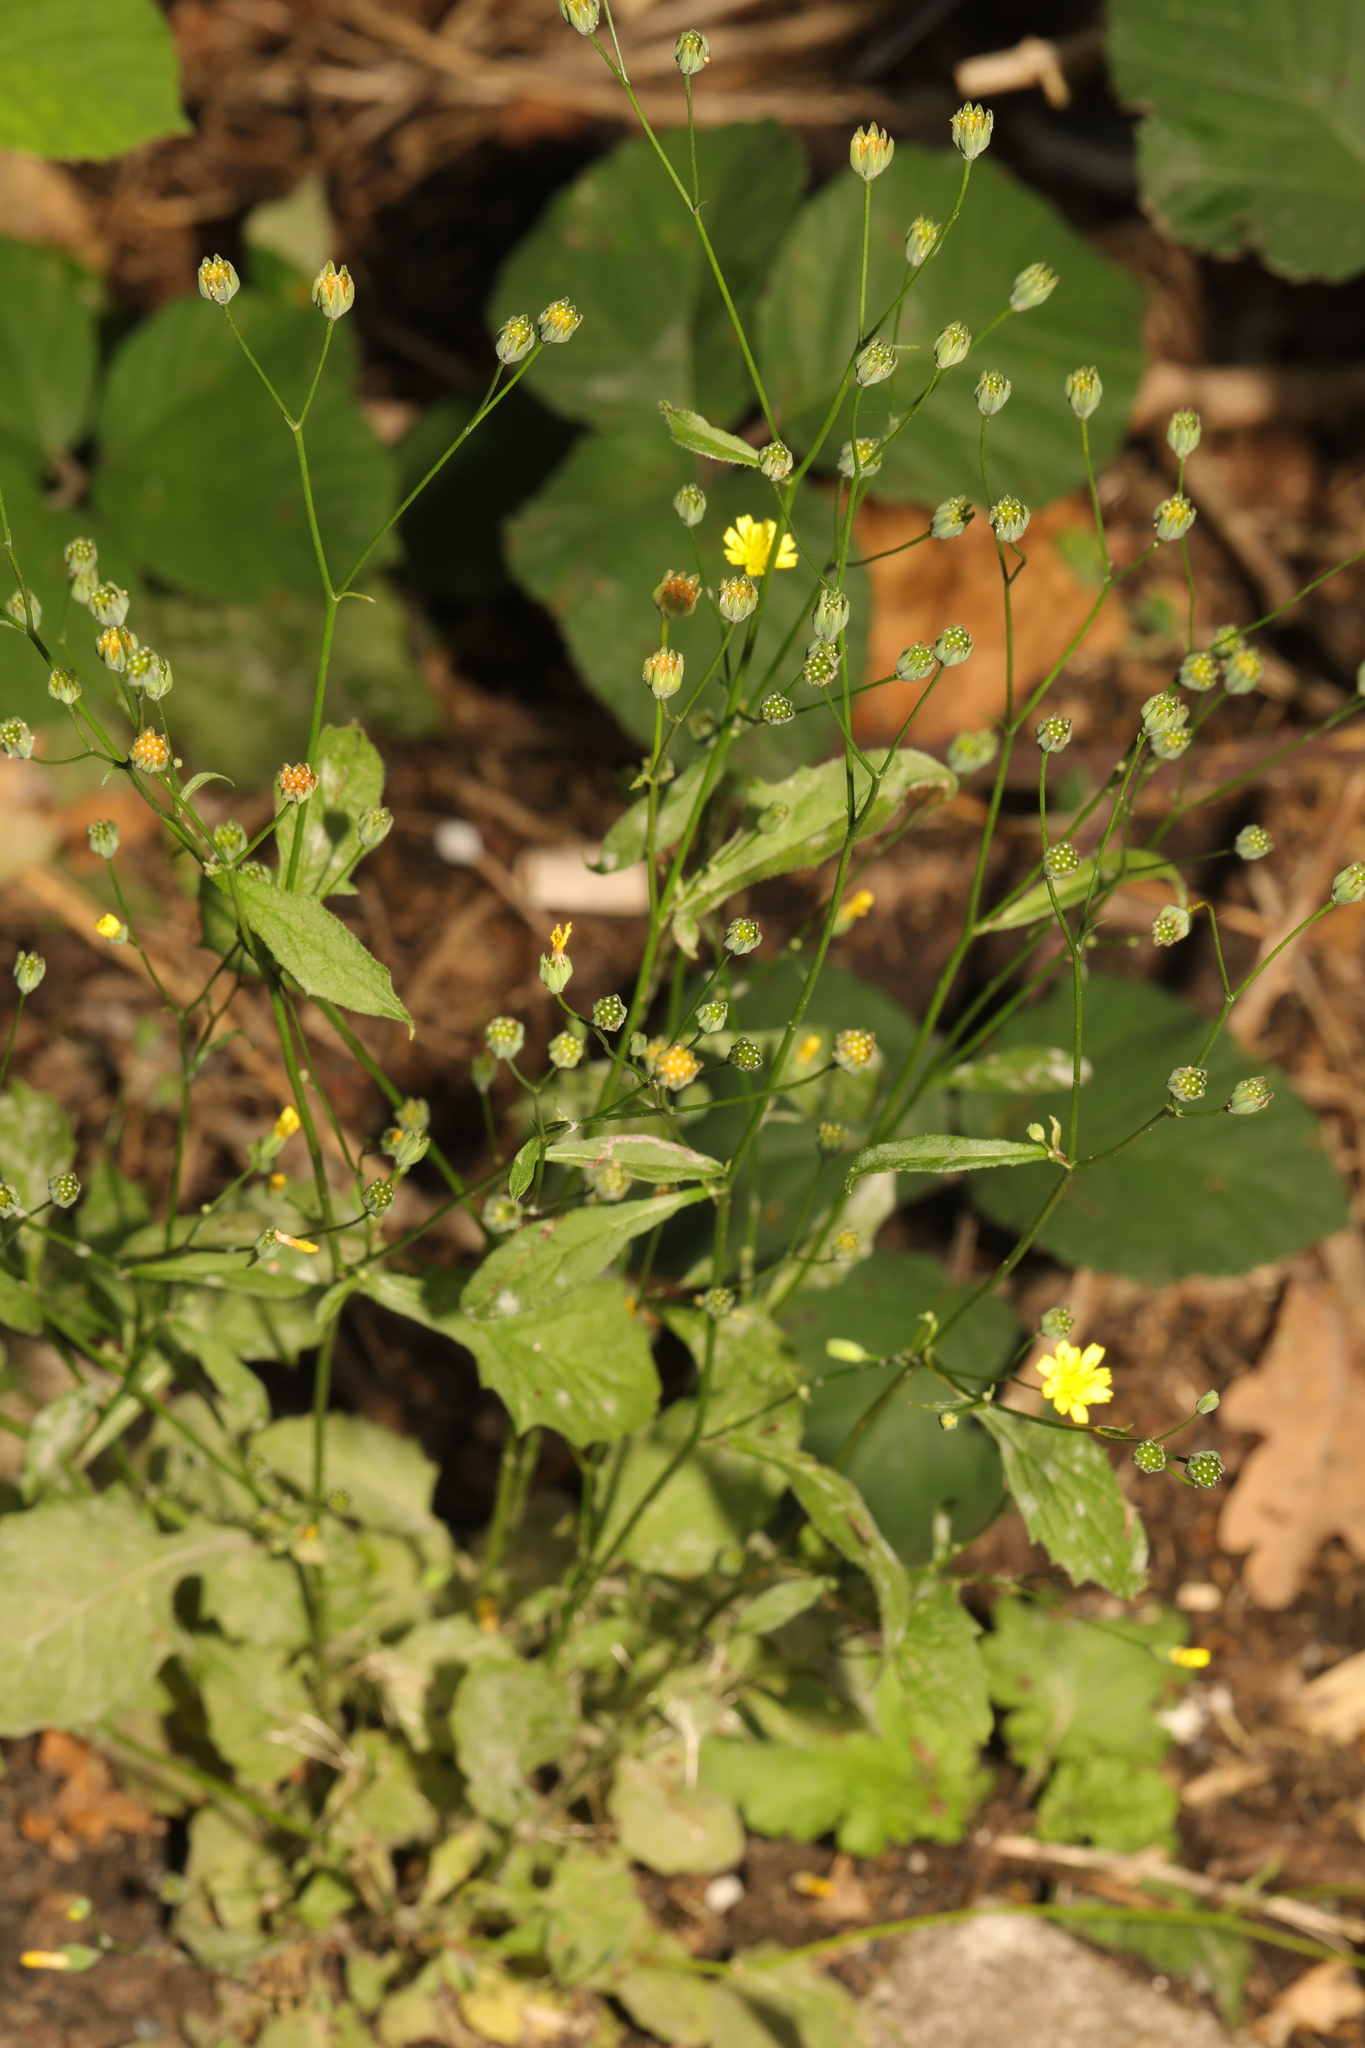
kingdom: Plantae
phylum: Tracheophyta
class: Magnoliopsida
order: Asterales
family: Asteraceae
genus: Lapsana
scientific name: Lapsana communis
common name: Nipplewort
